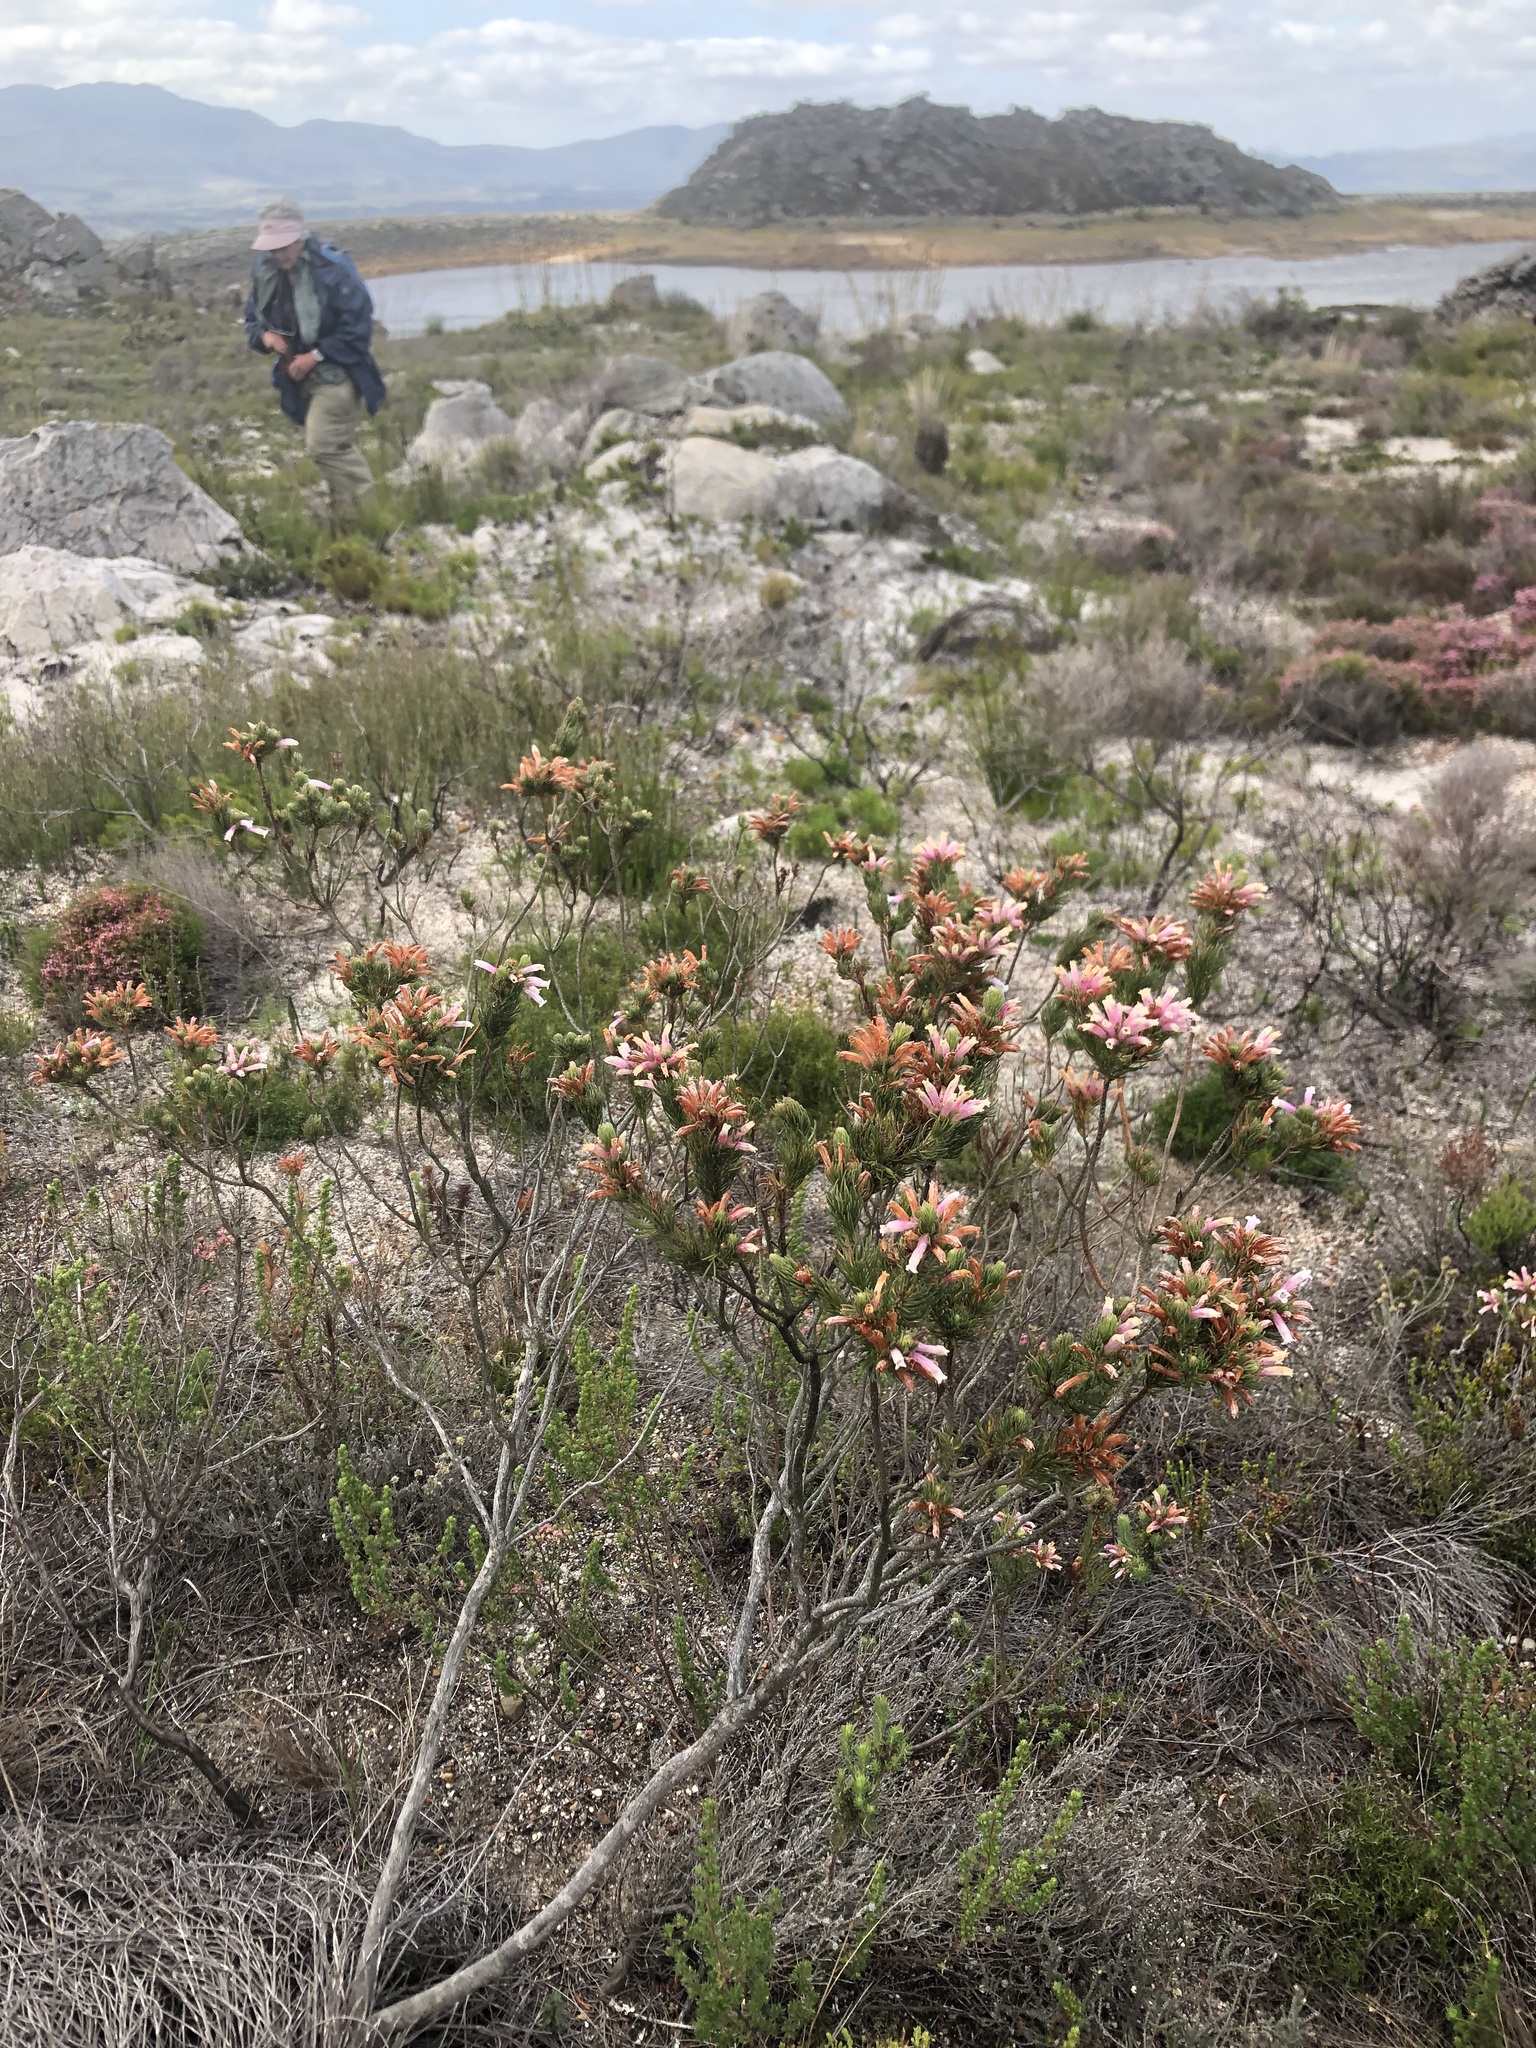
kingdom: Plantae
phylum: Tracheophyta
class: Magnoliopsida
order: Ericales
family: Ericaceae
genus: Erica
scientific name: Erica viscaria
